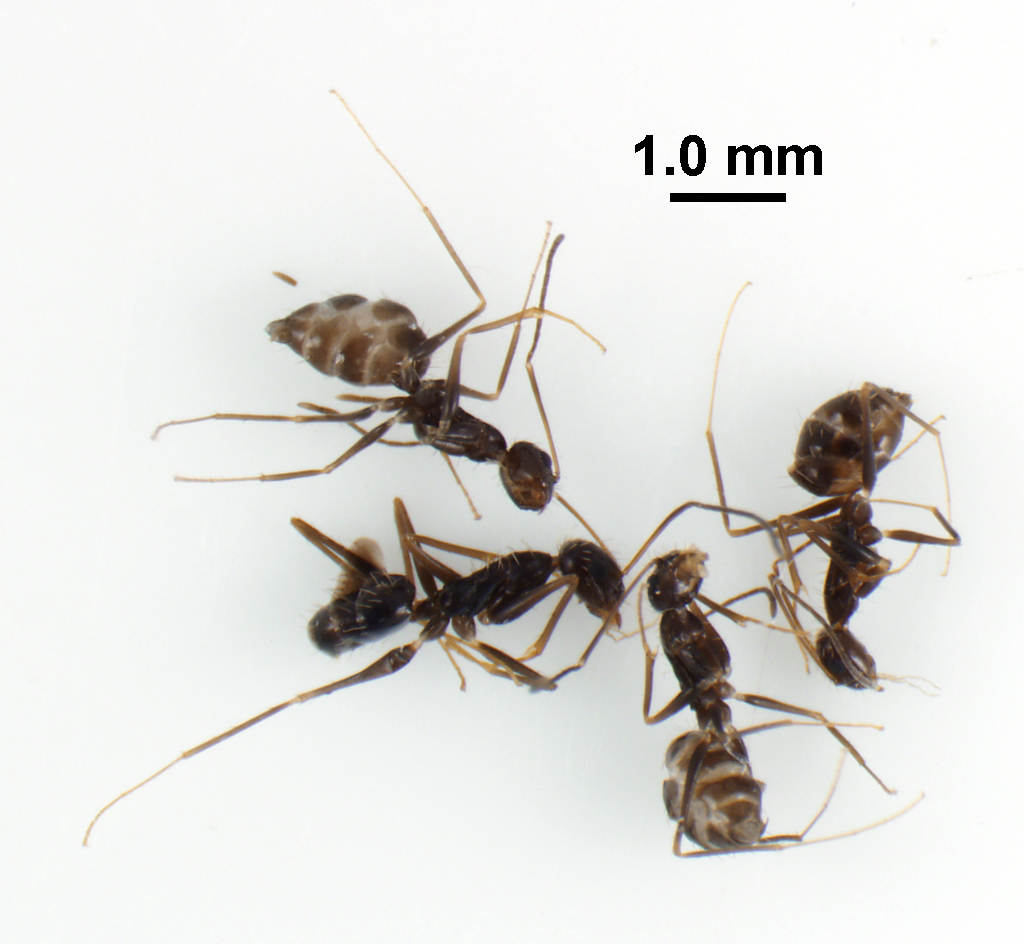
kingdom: Animalia
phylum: Arthropoda
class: Insecta
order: Hymenoptera
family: Formicidae
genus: Paratrechina
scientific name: Paratrechina longicornis
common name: Longhorned crazy ant
